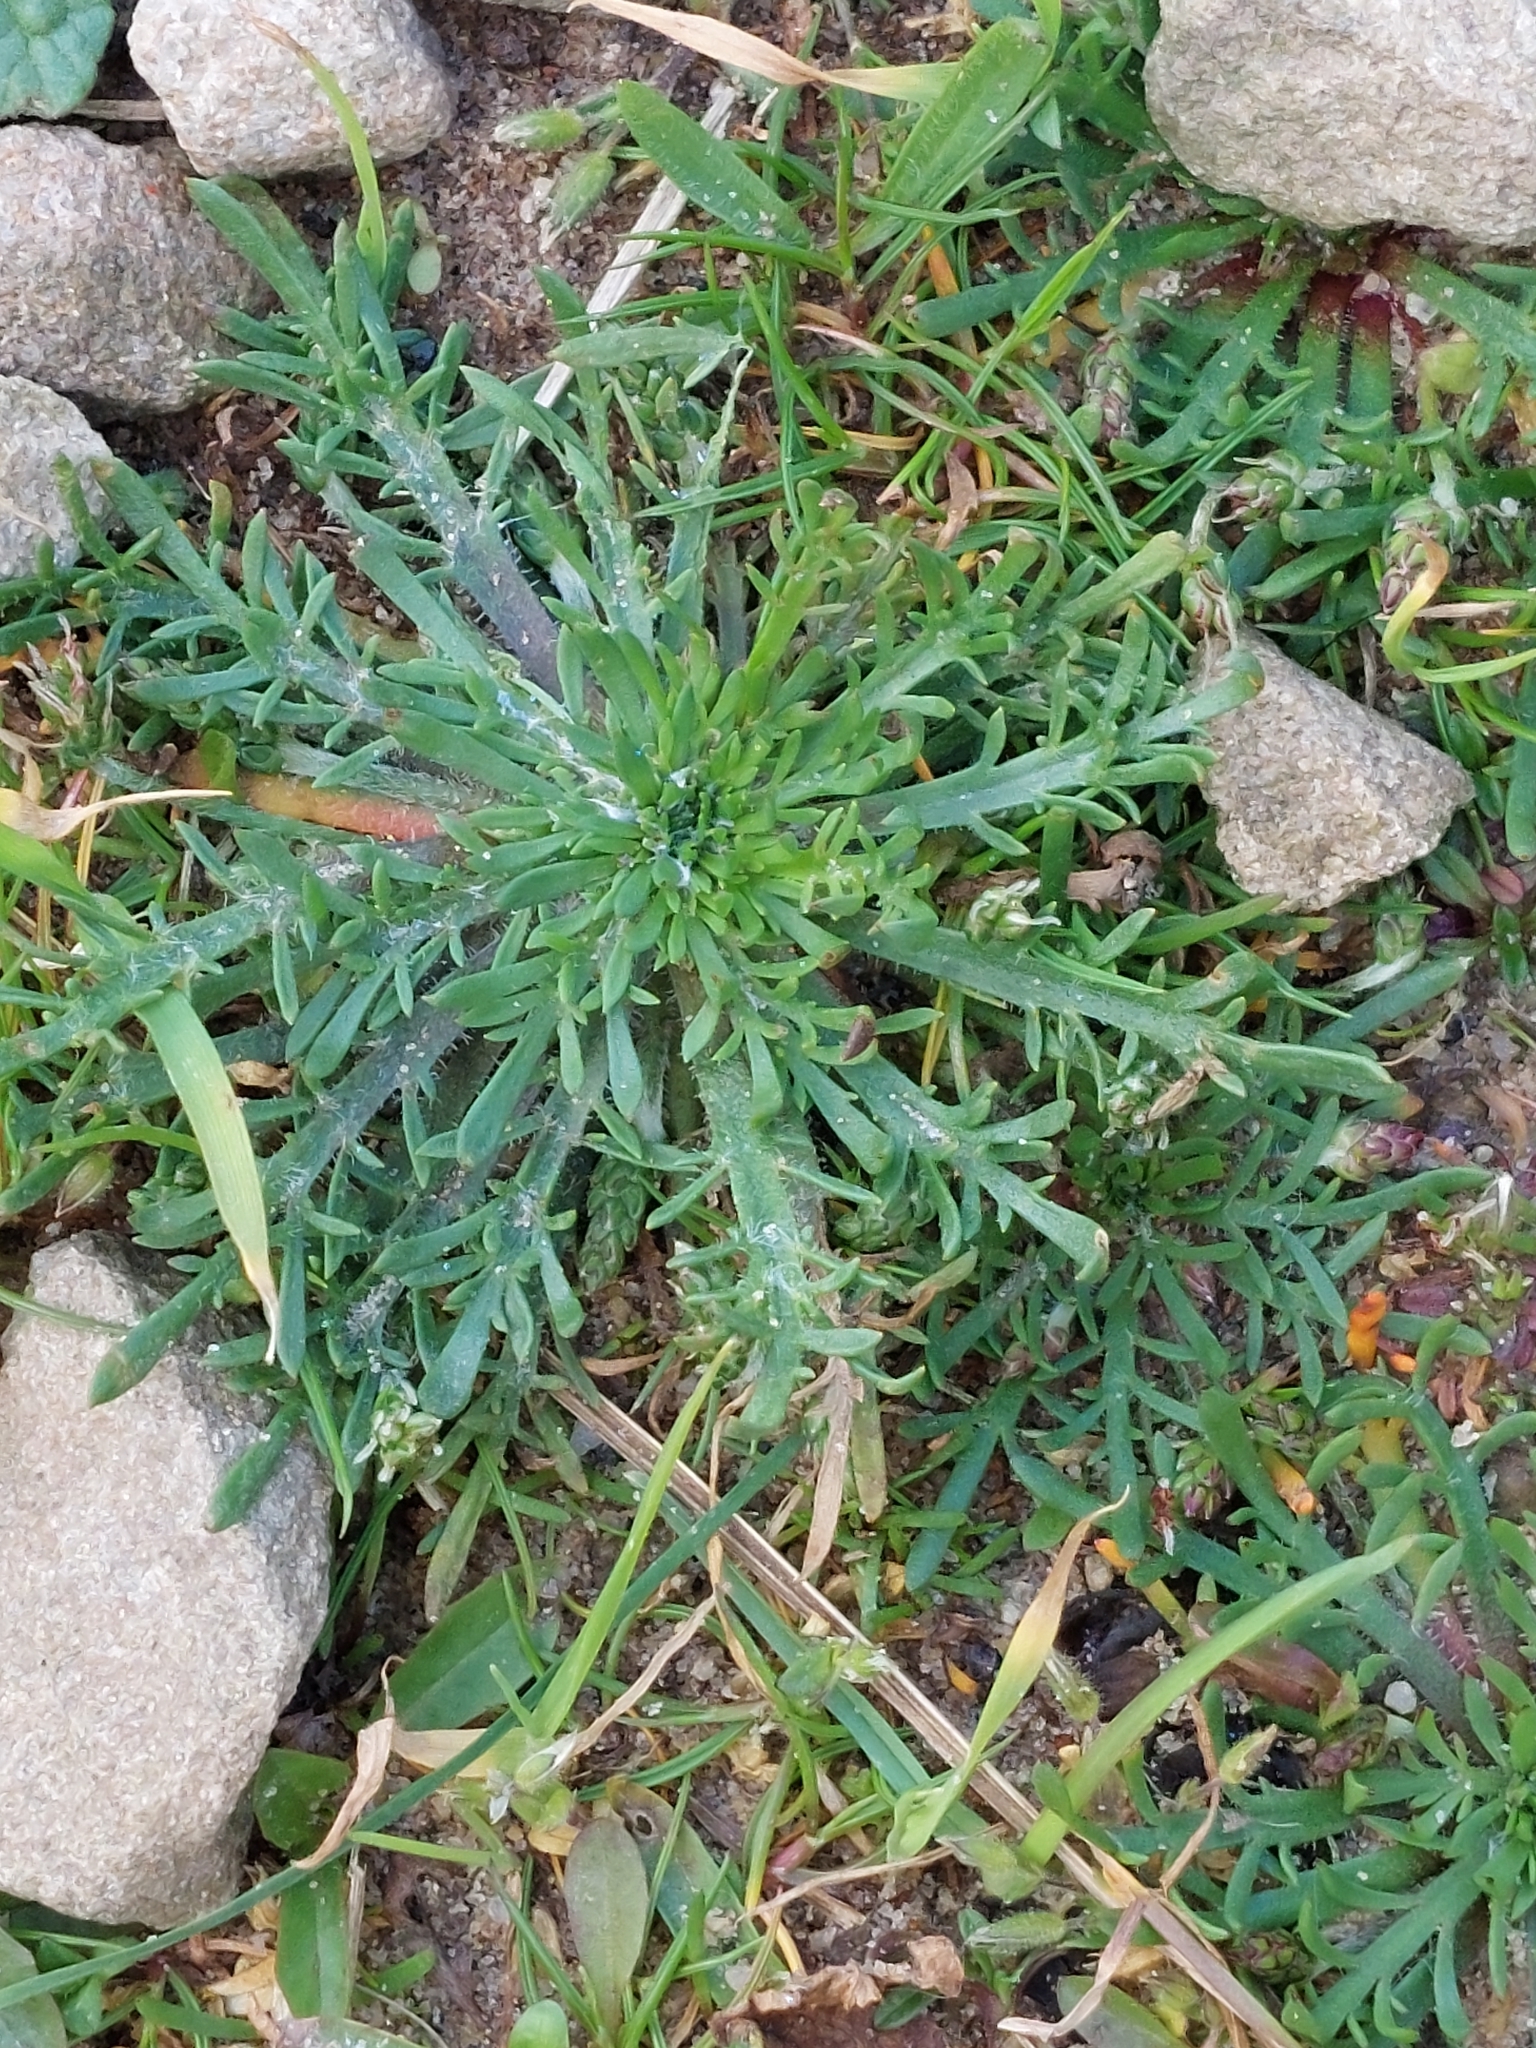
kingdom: Plantae
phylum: Tracheophyta
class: Magnoliopsida
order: Lamiales
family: Plantaginaceae
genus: Plantago
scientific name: Plantago coronopus
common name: Buck's-horn plantain
